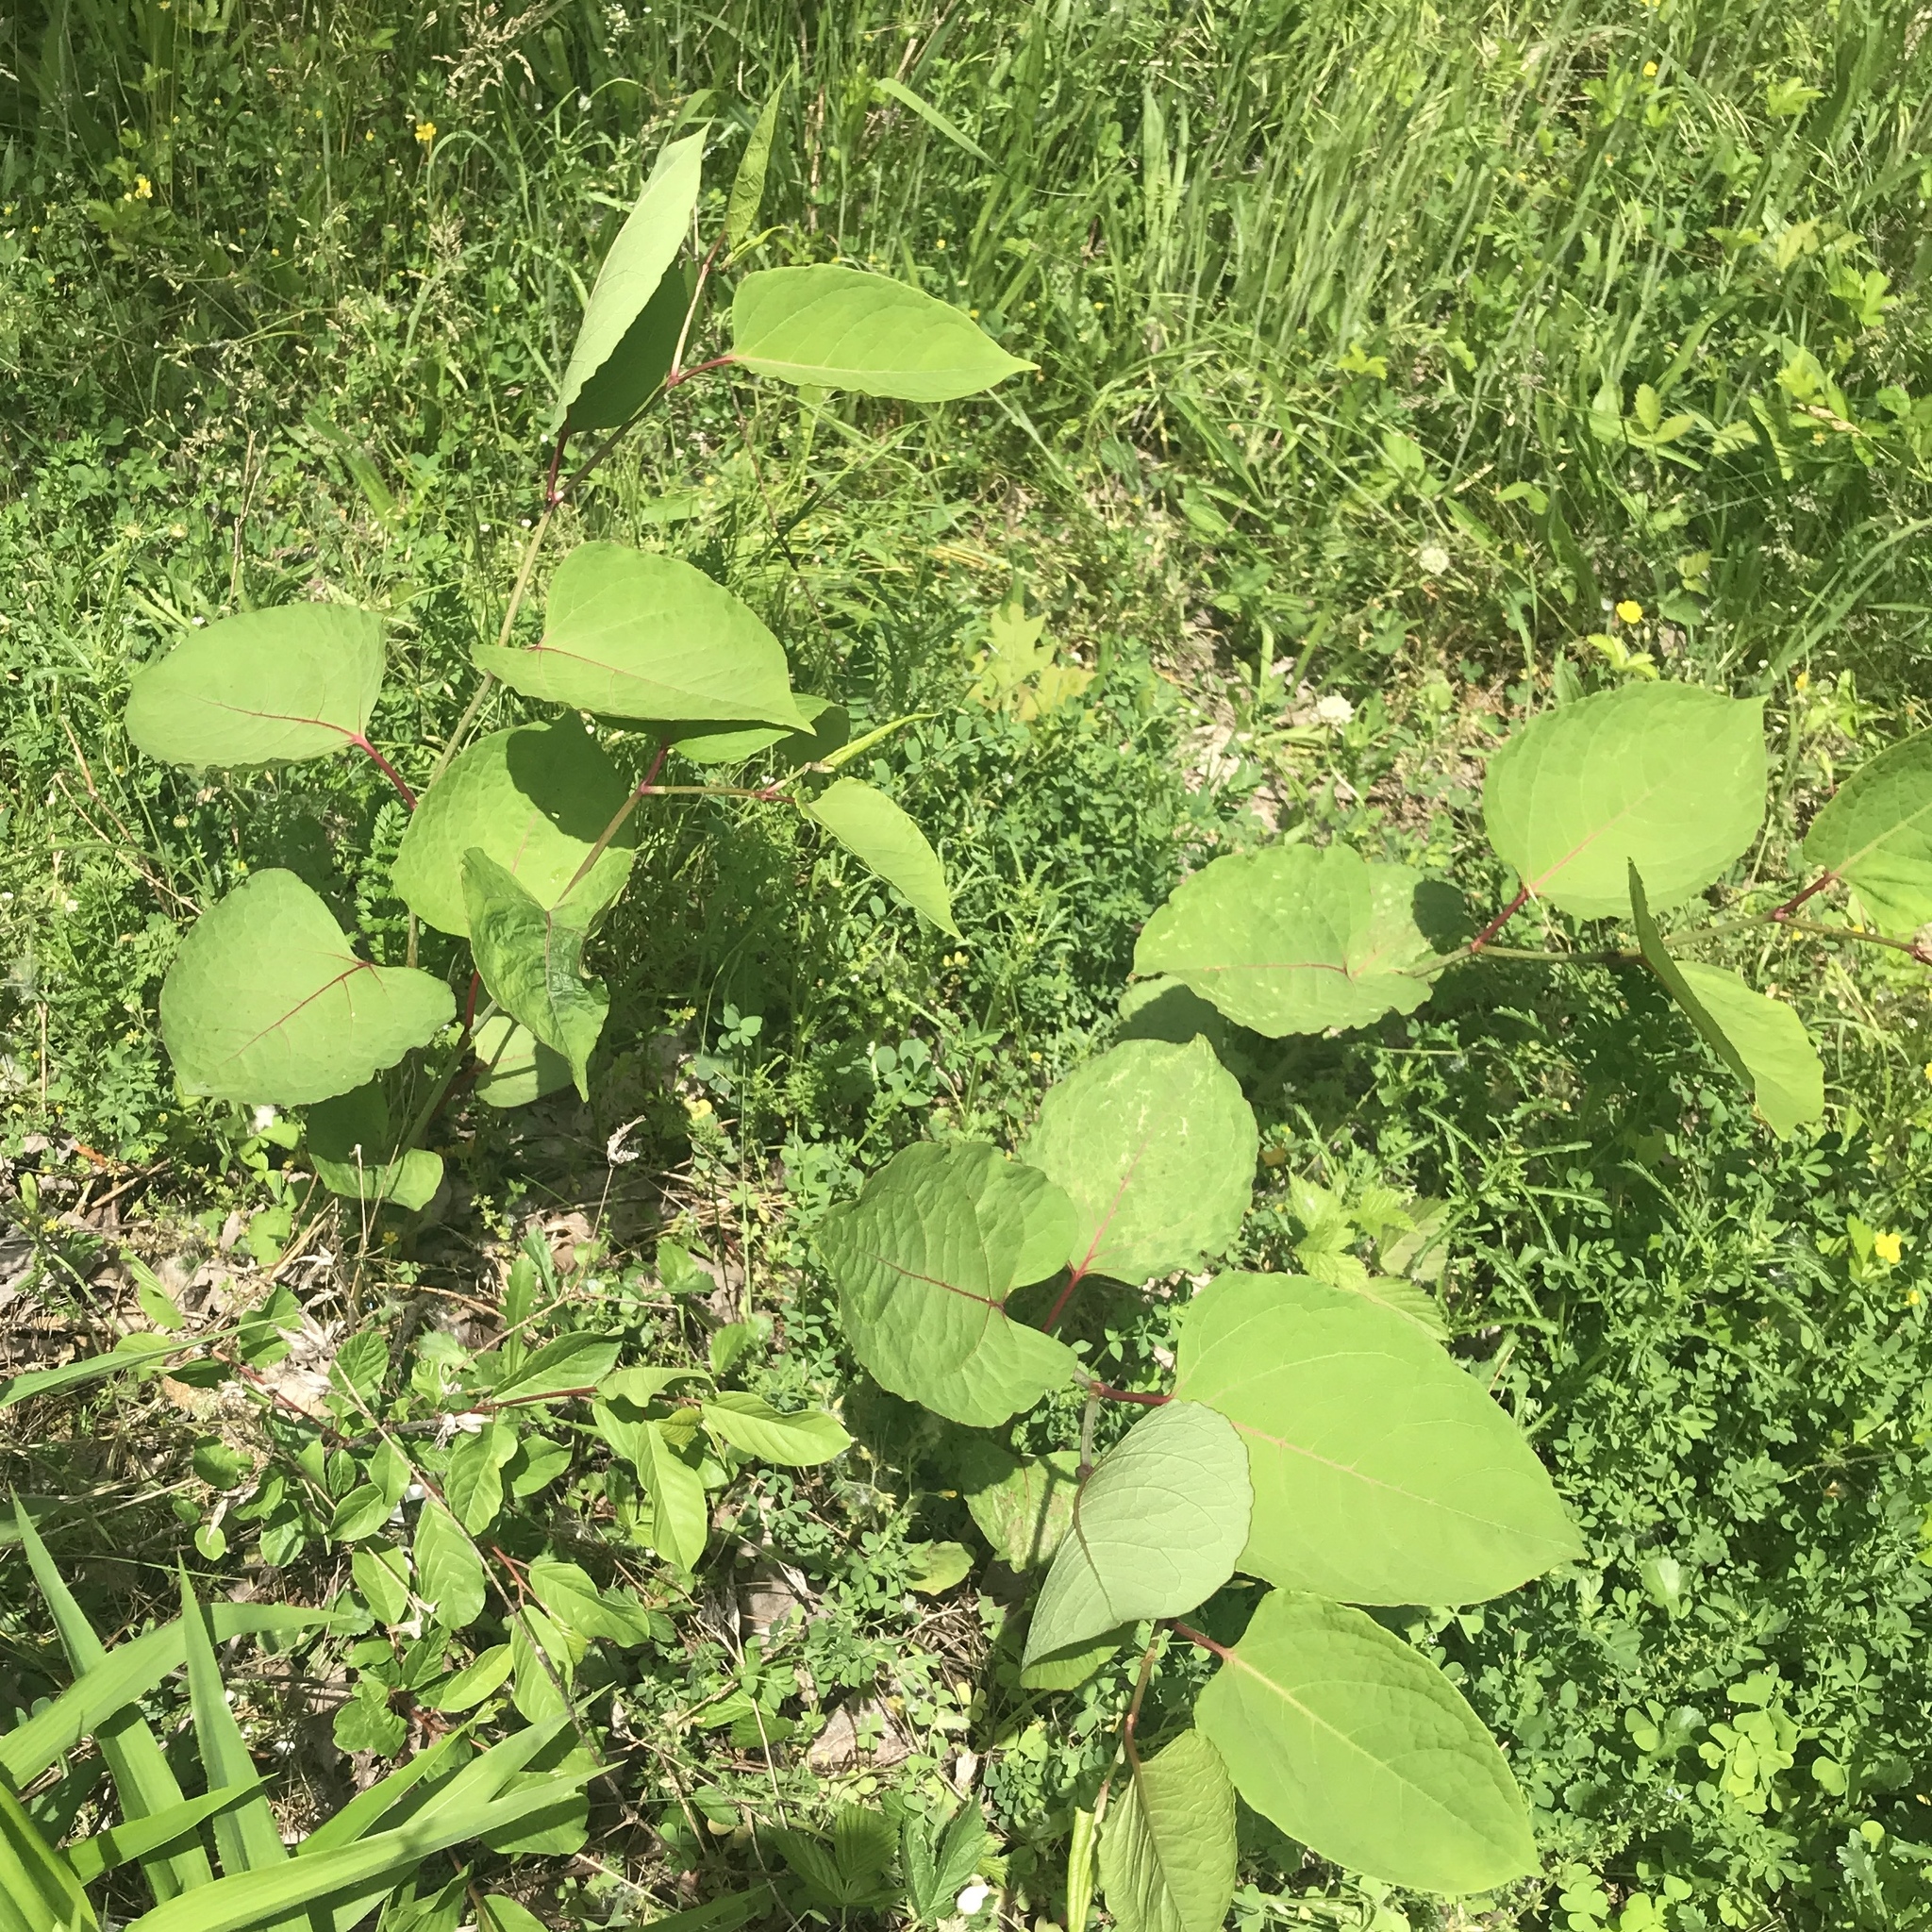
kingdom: Plantae
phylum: Tracheophyta
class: Magnoliopsida
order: Caryophyllales
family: Polygonaceae
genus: Reynoutria
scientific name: Reynoutria japonica
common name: Japanese knotweed
